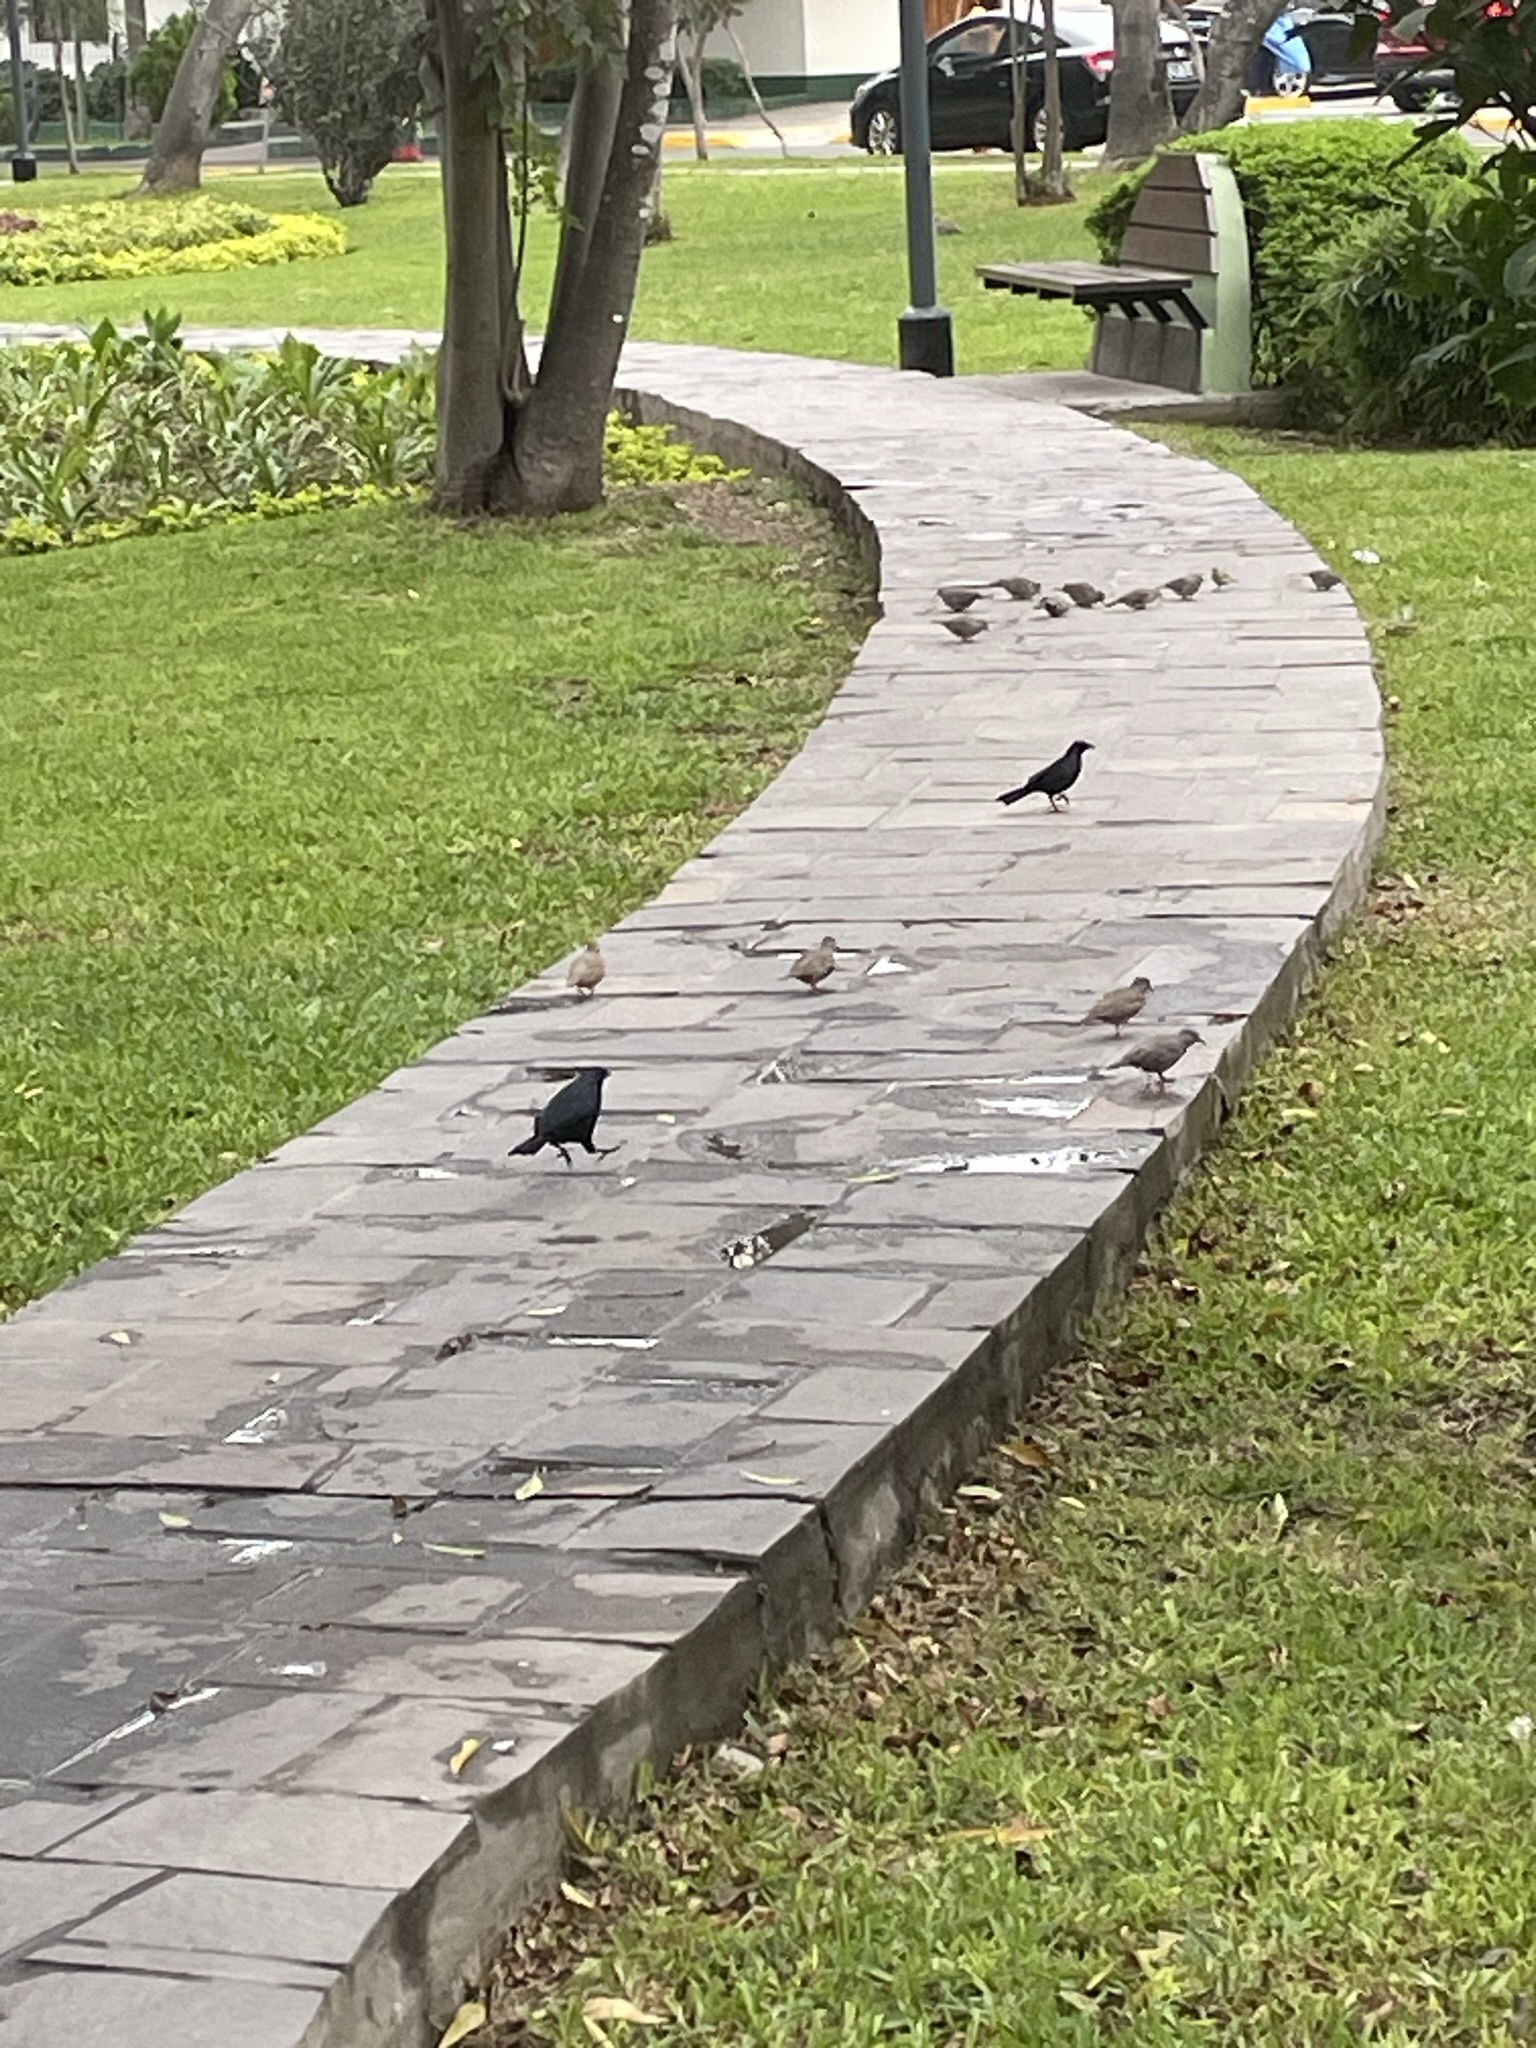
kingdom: Animalia
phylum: Chordata
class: Aves
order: Columbiformes
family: Columbidae
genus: Columbina
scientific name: Columbina cruziana
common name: Croaking ground dove
